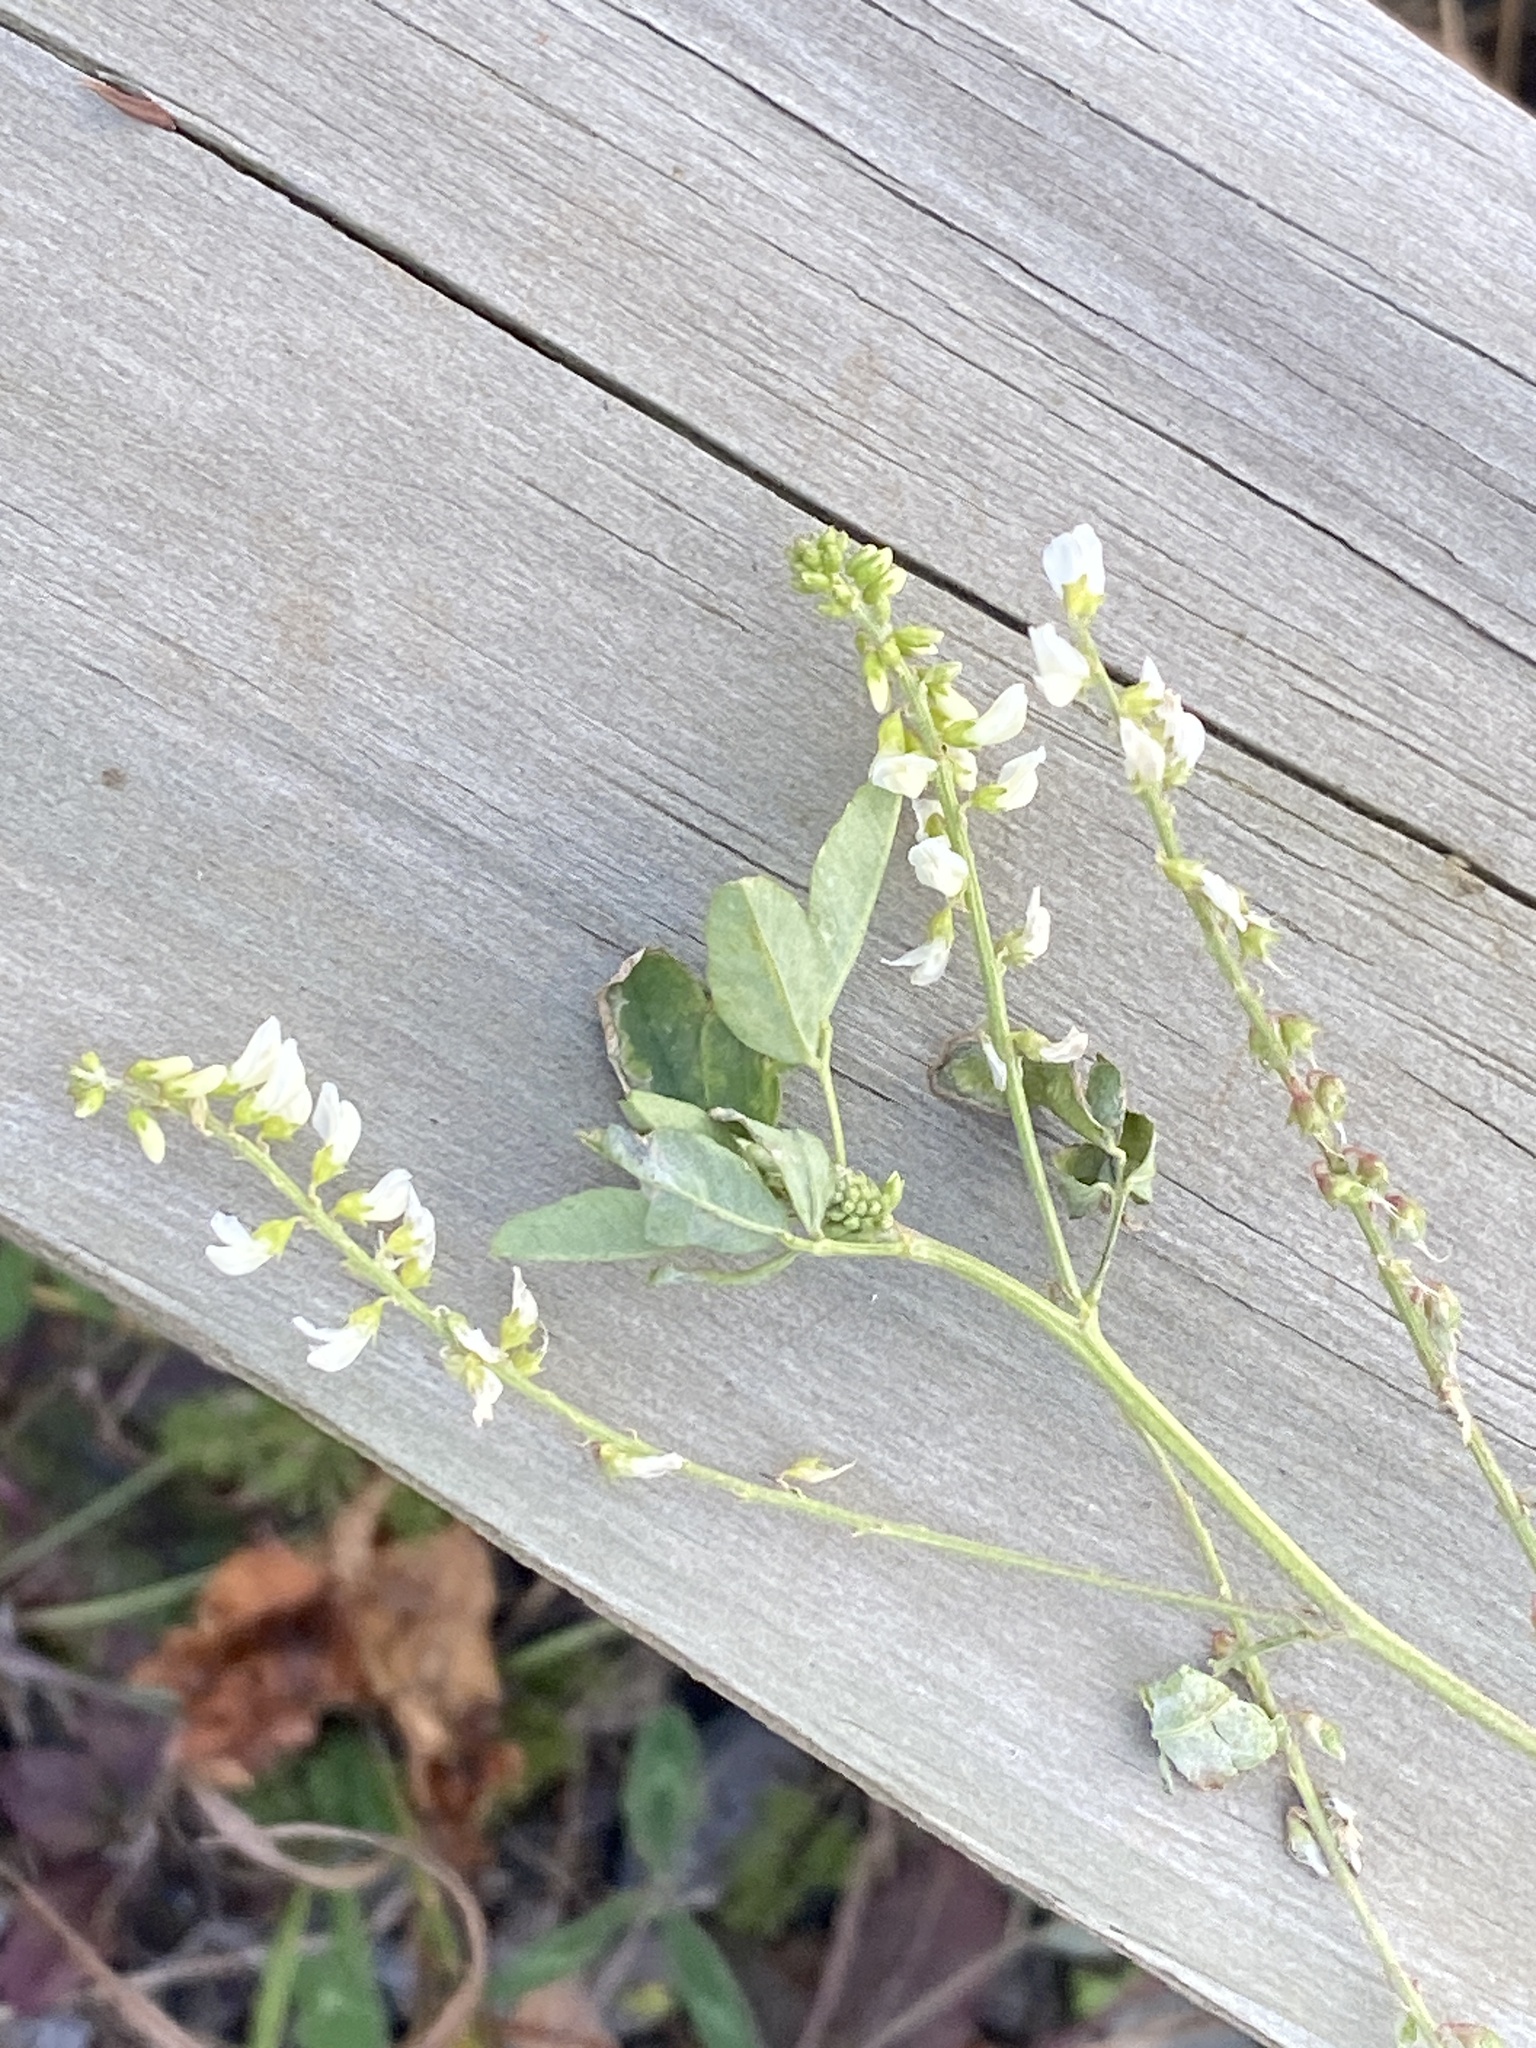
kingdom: Plantae
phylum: Tracheophyta
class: Magnoliopsida
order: Fabales
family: Fabaceae
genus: Melilotus
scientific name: Melilotus albus
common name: White melilot
